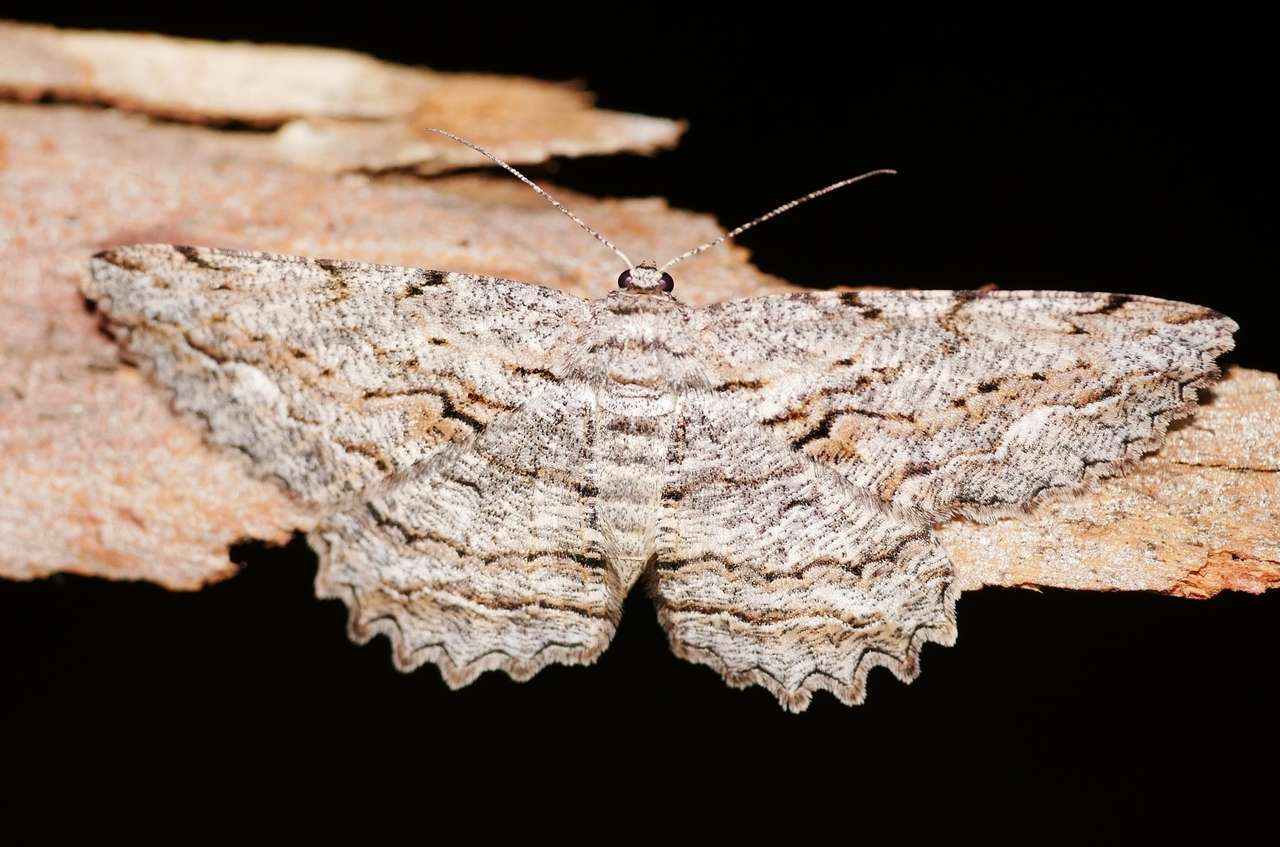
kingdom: Animalia
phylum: Arthropoda
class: Insecta
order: Lepidoptera
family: Geometridae
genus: Scioglyptis
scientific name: Scioglyptis lyciaria
